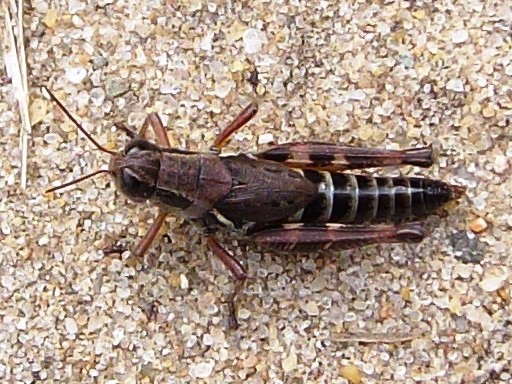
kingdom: Animalia
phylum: Arthropoda
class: Insecta
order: Orthoptera
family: Acrididae
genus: Melanoplus
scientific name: Melanoplus dawsoni
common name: Dawson grasshopper
